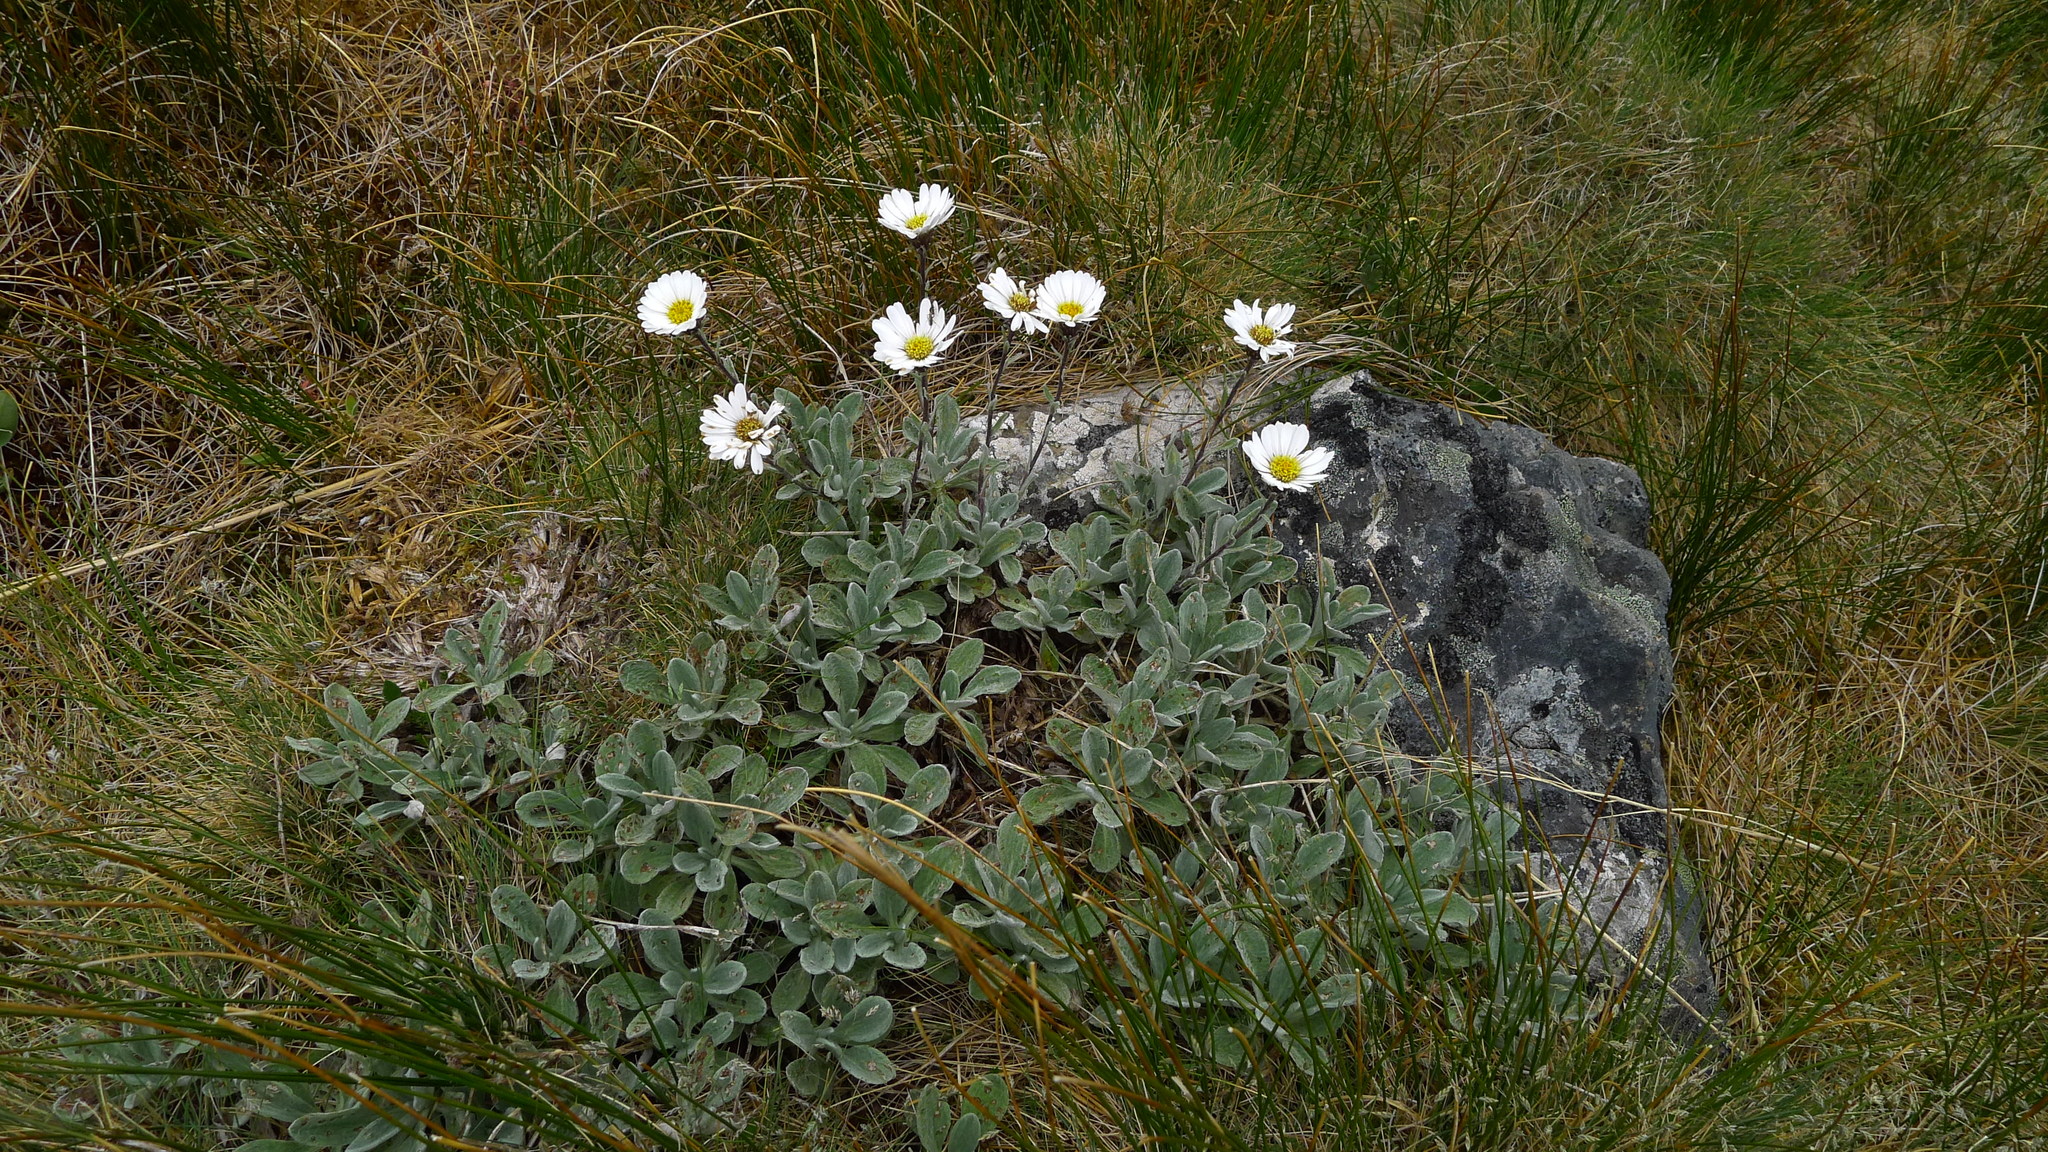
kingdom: Plantae
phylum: Tracheophyta
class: Magnoliopsida
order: Asterales
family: Asteraceae
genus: Celmisia
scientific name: Celmisia allanii
